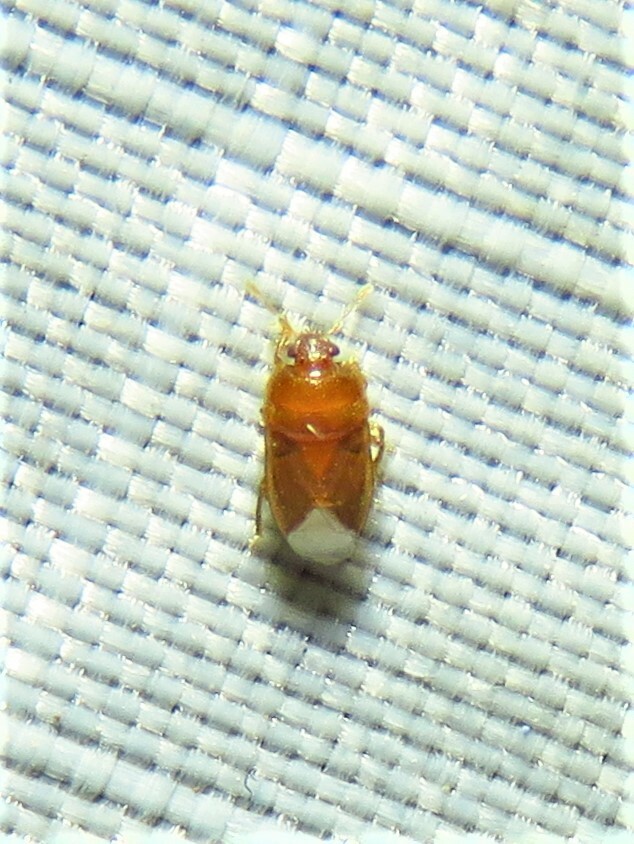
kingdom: Animalia
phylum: Arthropoda
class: Insecta
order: Hemiptera
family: Cydnidae
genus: Amnestus
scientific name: Amnestus
